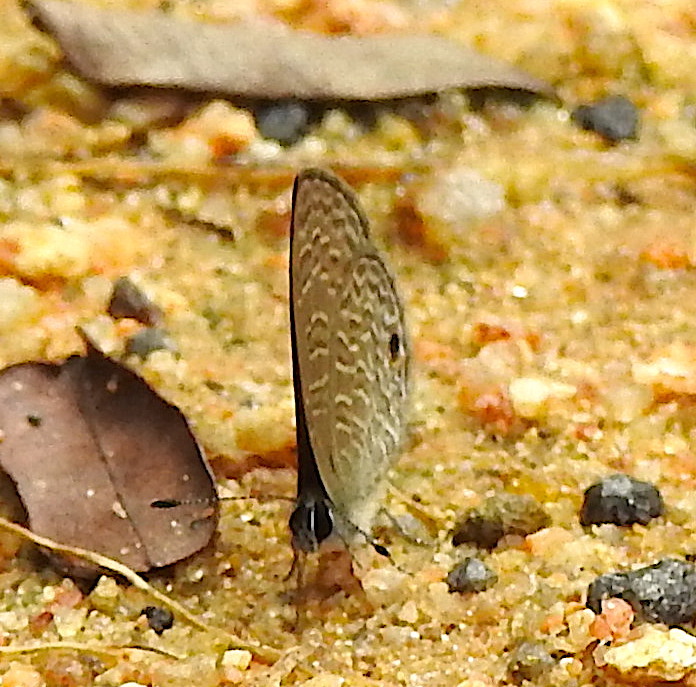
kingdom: Animalia
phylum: Arthropoda
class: Insecta
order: Lepidoptera
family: Lycaenidae
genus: Prosotas
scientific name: Prosotas dubiosa
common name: Tailless lineblue
